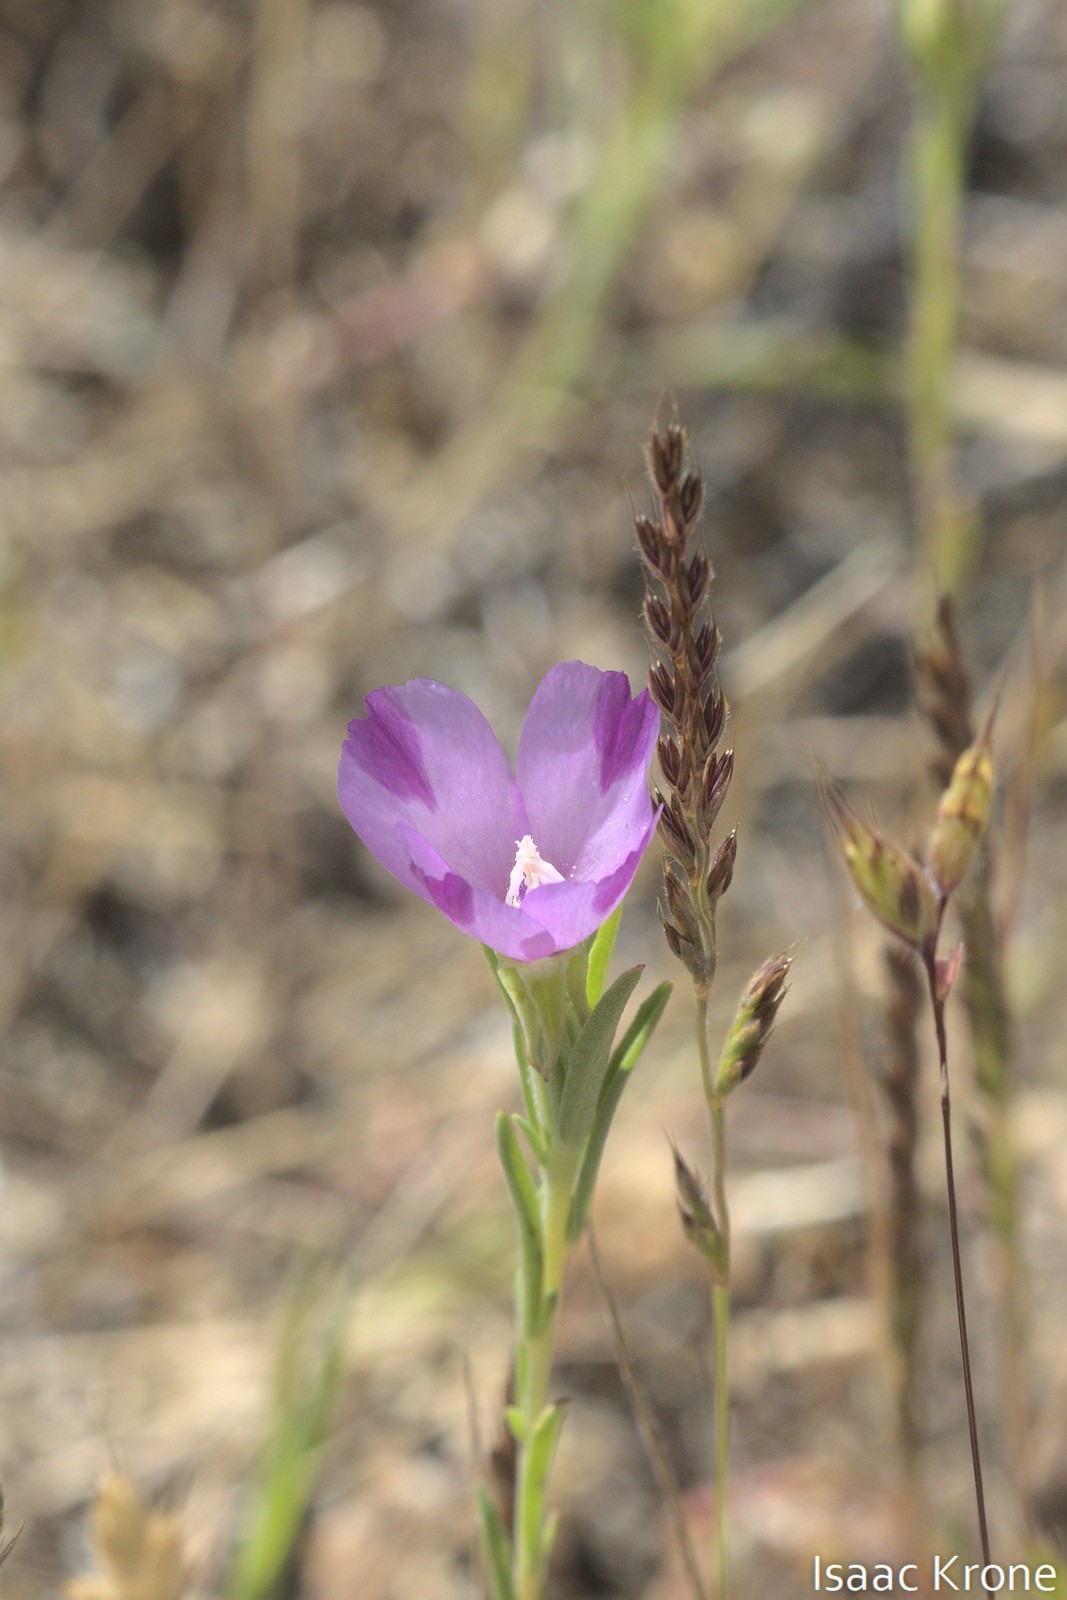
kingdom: Plantae
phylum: Tracheophyta
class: Magnoliopsida
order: Myrtales
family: Onagraceae
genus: Clarkia
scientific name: Clarkia purpurea
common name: Purple clarkia
